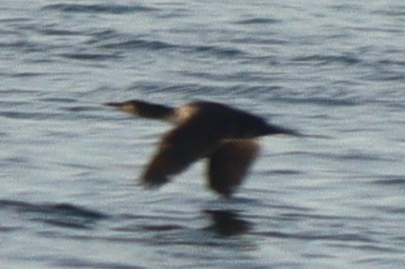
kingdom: Animalia
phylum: Chordata
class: Aves
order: Suliformes
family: Phalacrocoracidae
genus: Phalacrocorax
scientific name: Phalacrocorax carbo
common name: Great cormorant
